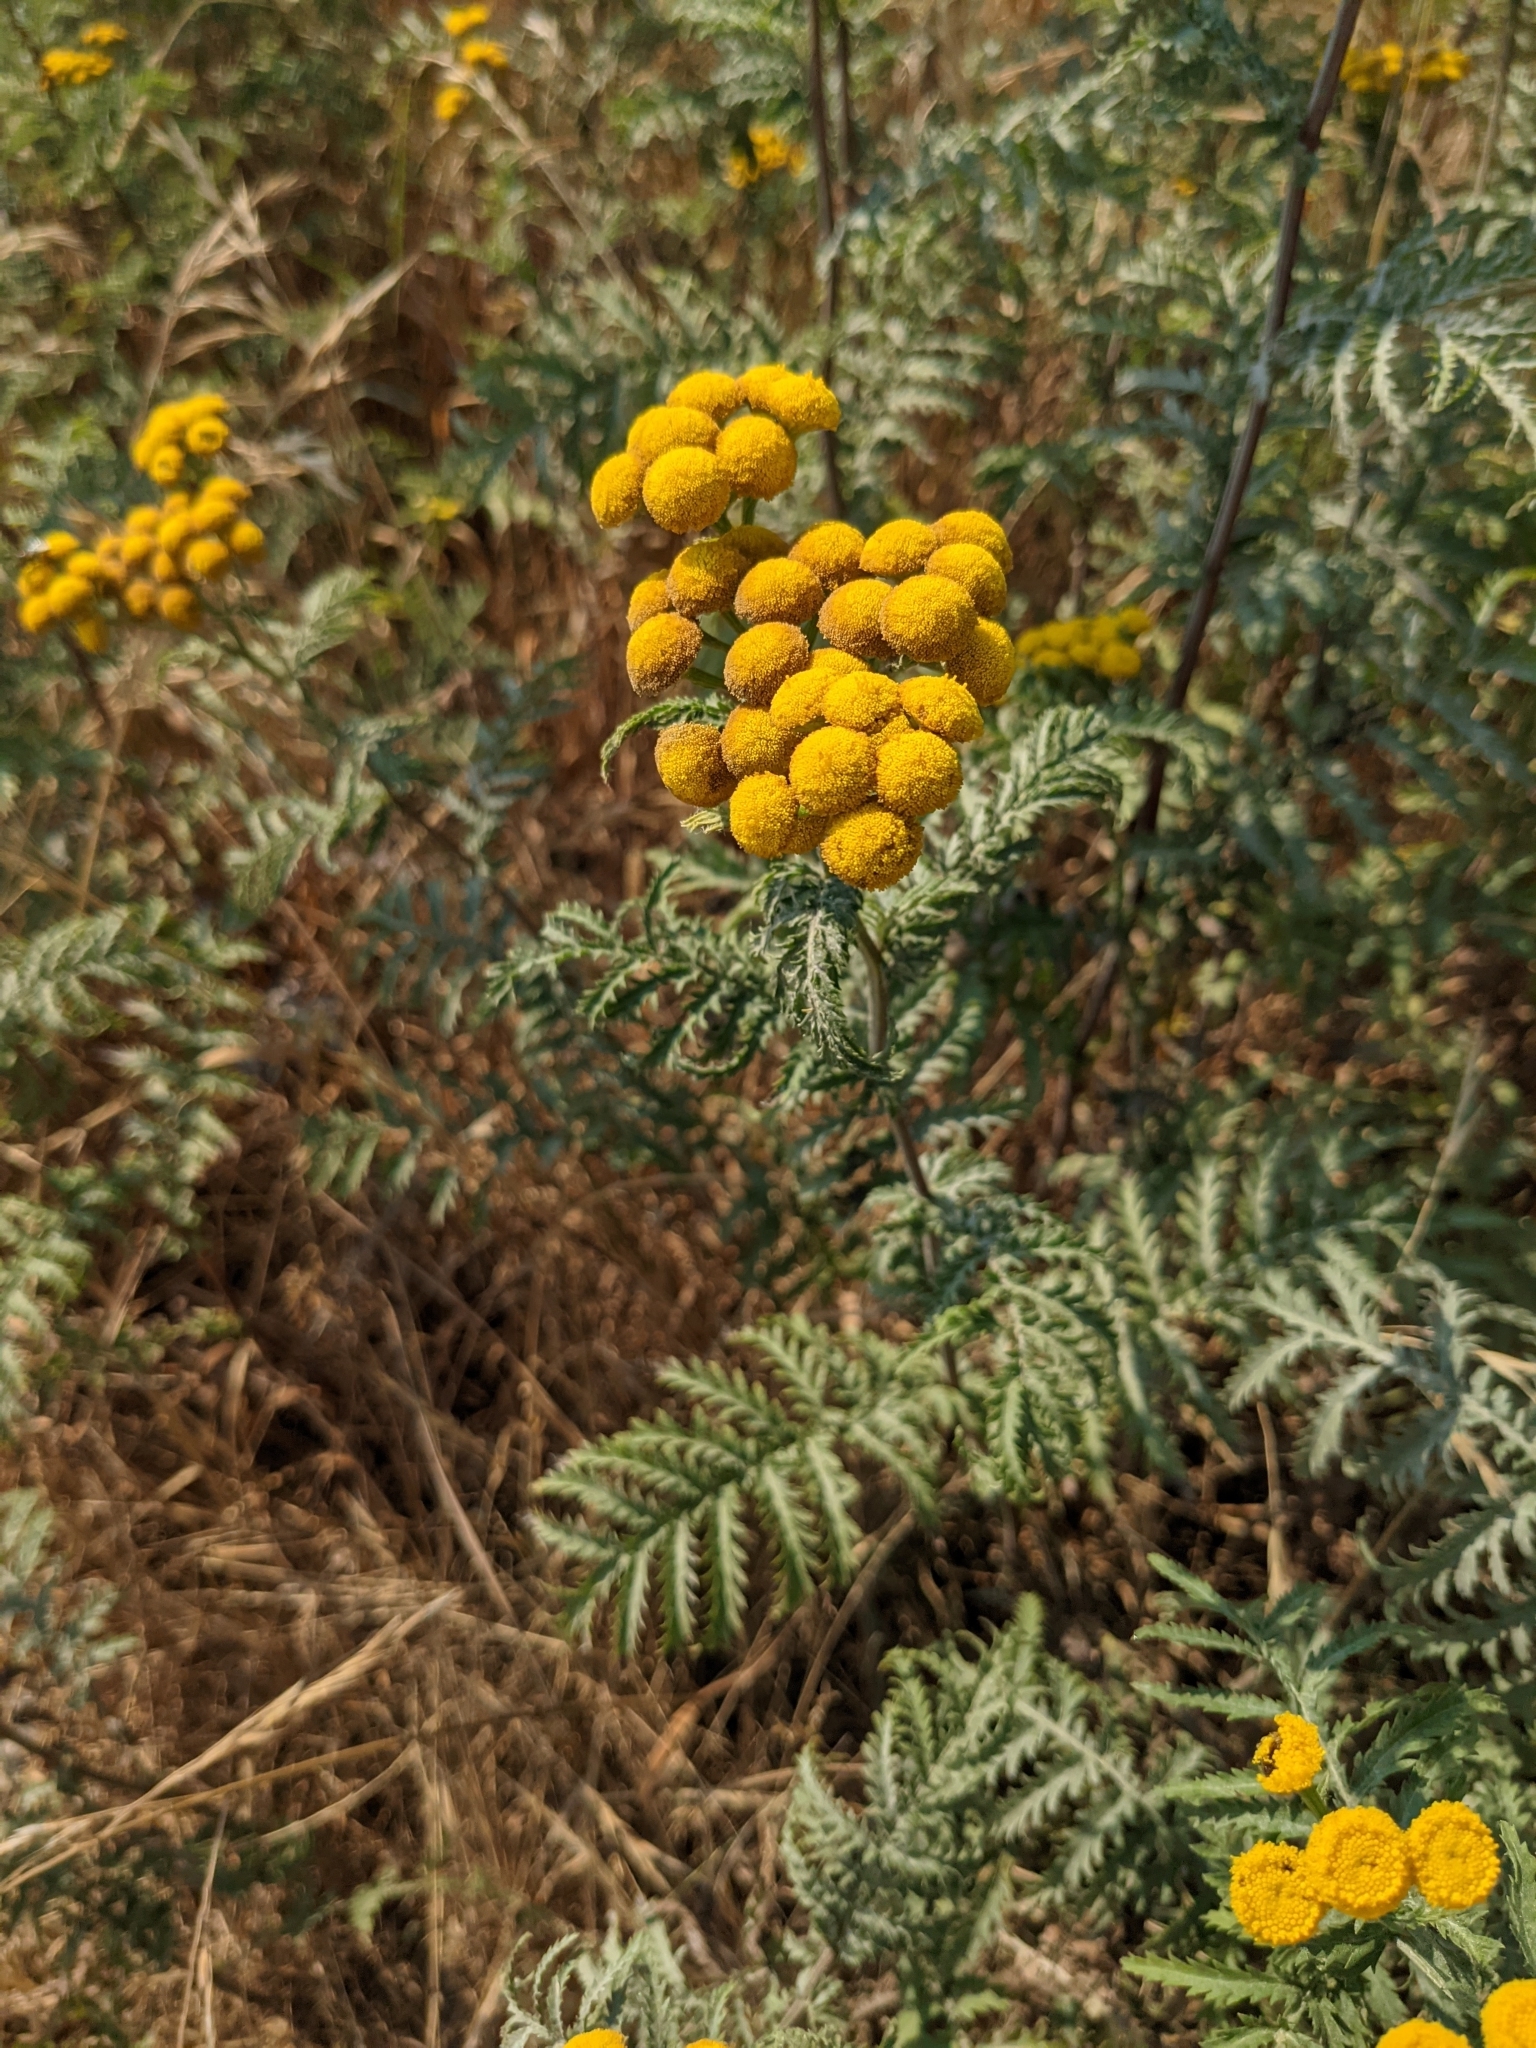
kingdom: Plantae
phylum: Tracheophyta
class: Magnoliopsida
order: Asterales
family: Asteraceae
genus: Tanacetum
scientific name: Tanacetum vulgare
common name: Common tansy
